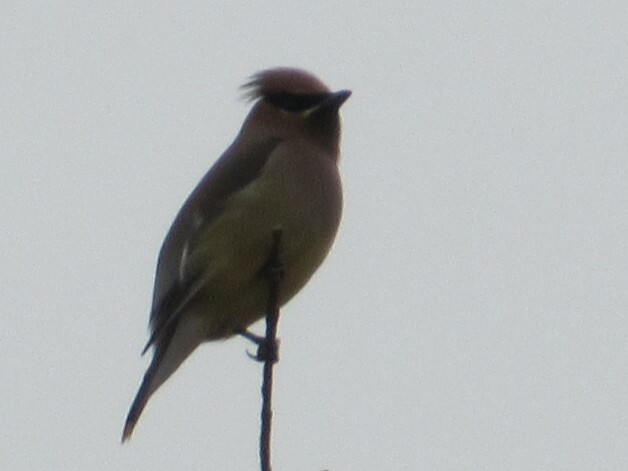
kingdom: Animalia
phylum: Chordata
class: Aves
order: Passeriformes
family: Bombycillidae
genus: Bombycilla
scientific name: Bombycilla cedrorum
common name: Cedar waxwing
